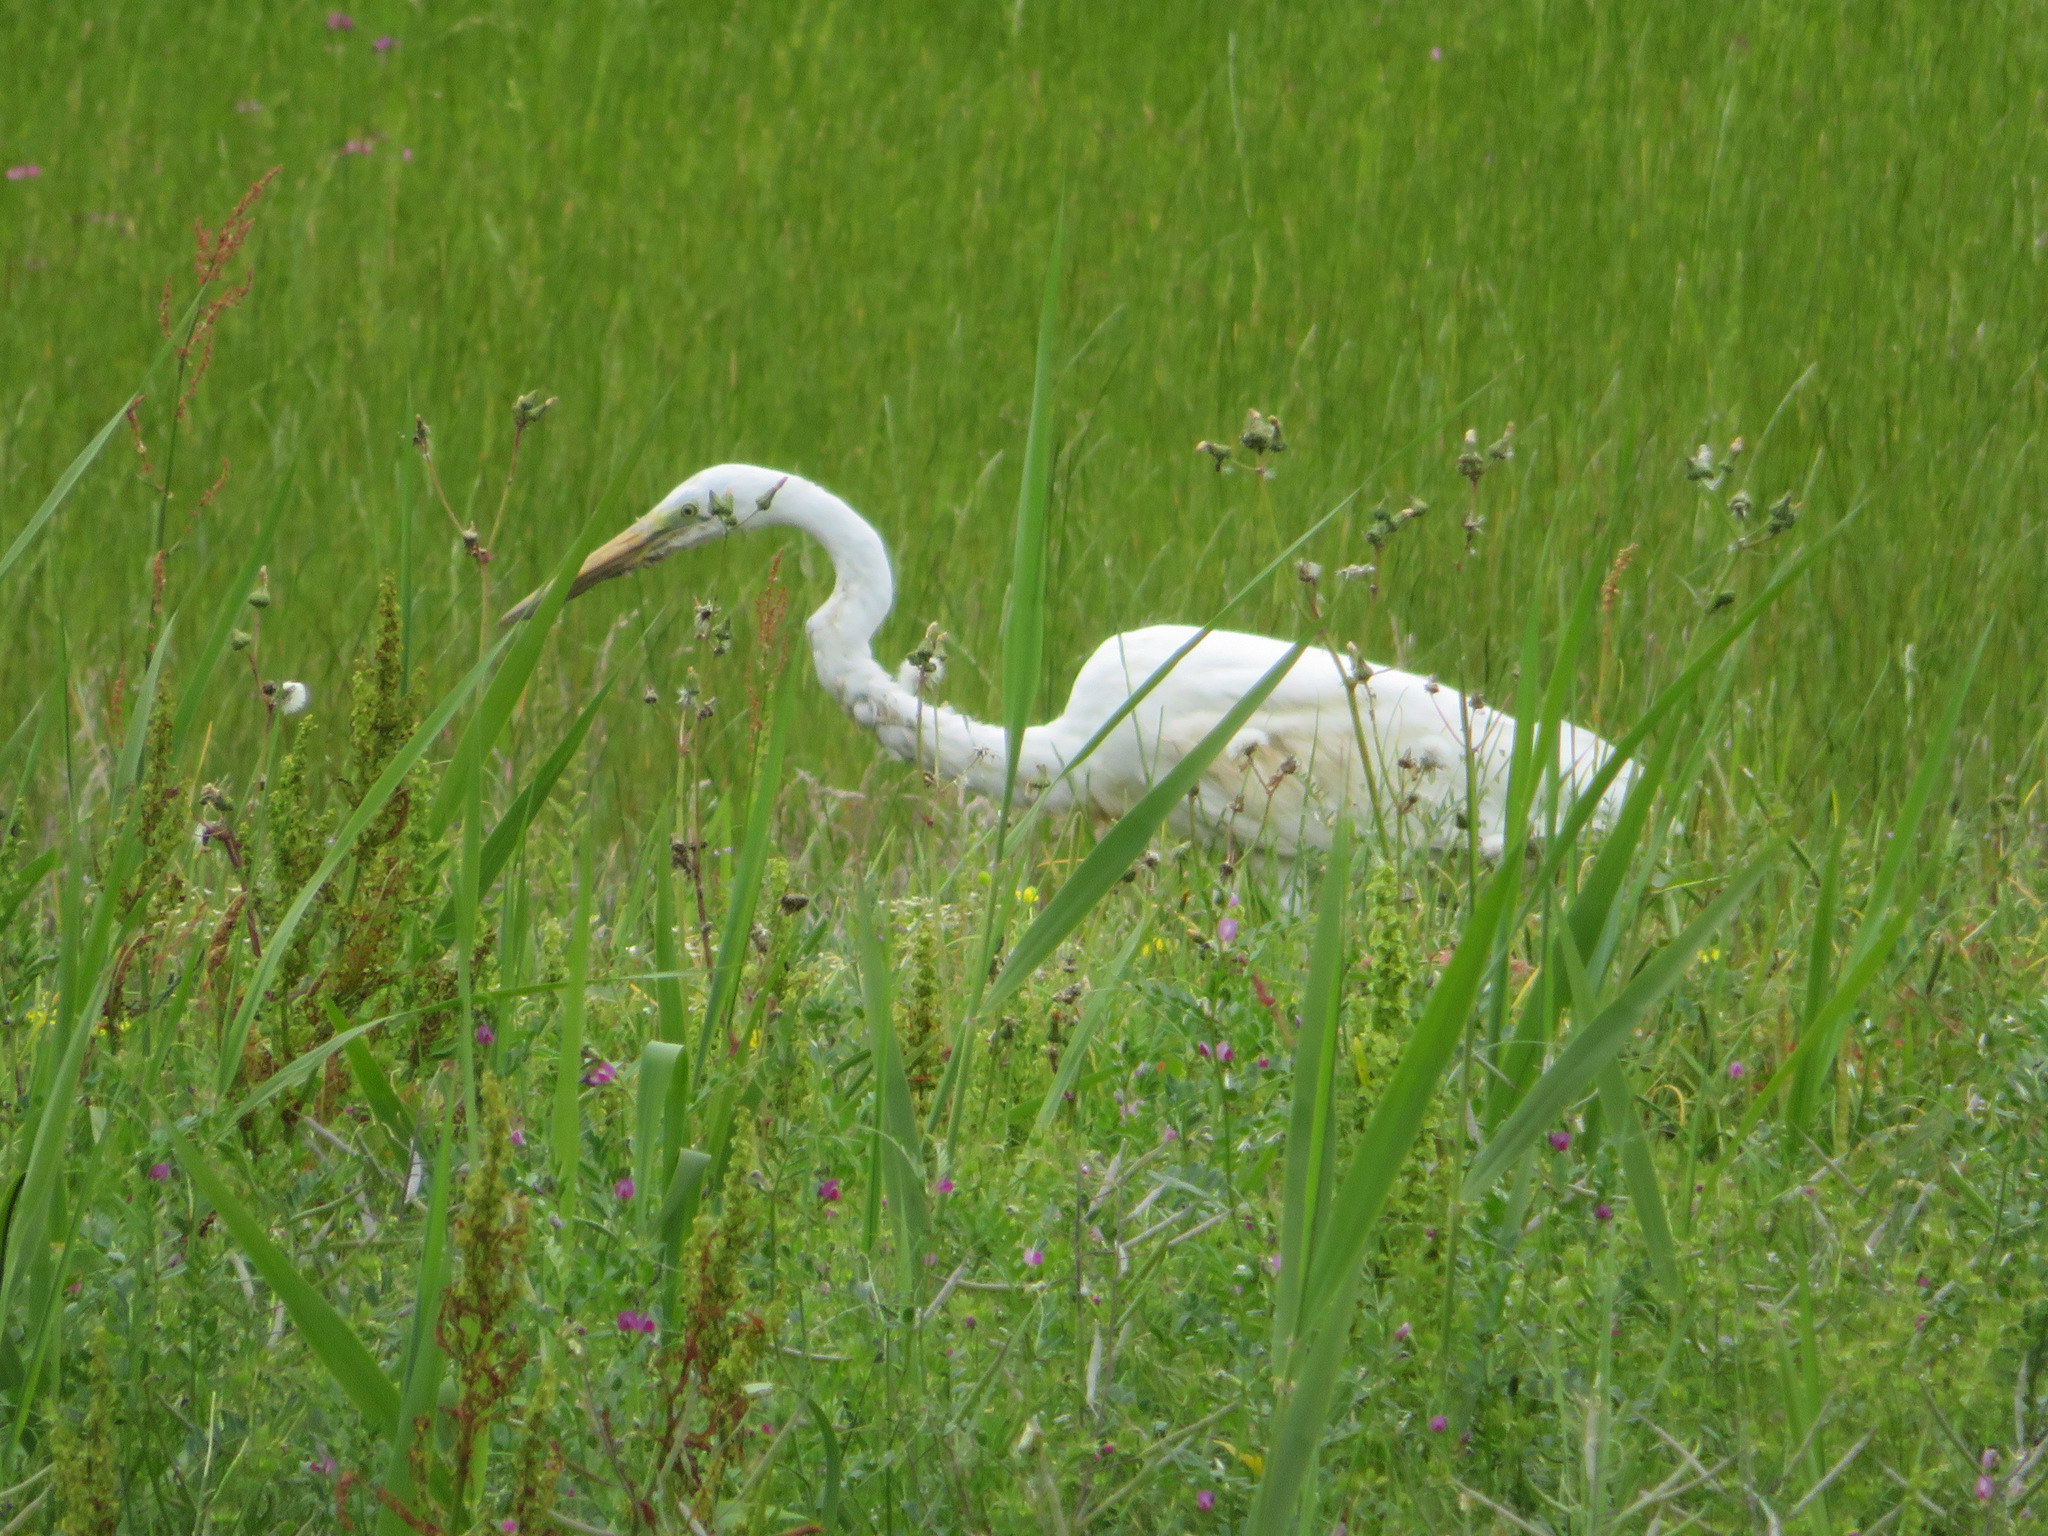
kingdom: Animalia
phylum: Chordata
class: Aves
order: Pelecaniformes
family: Ardeidae
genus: Ardea
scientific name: Ardea alba
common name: Great egret
